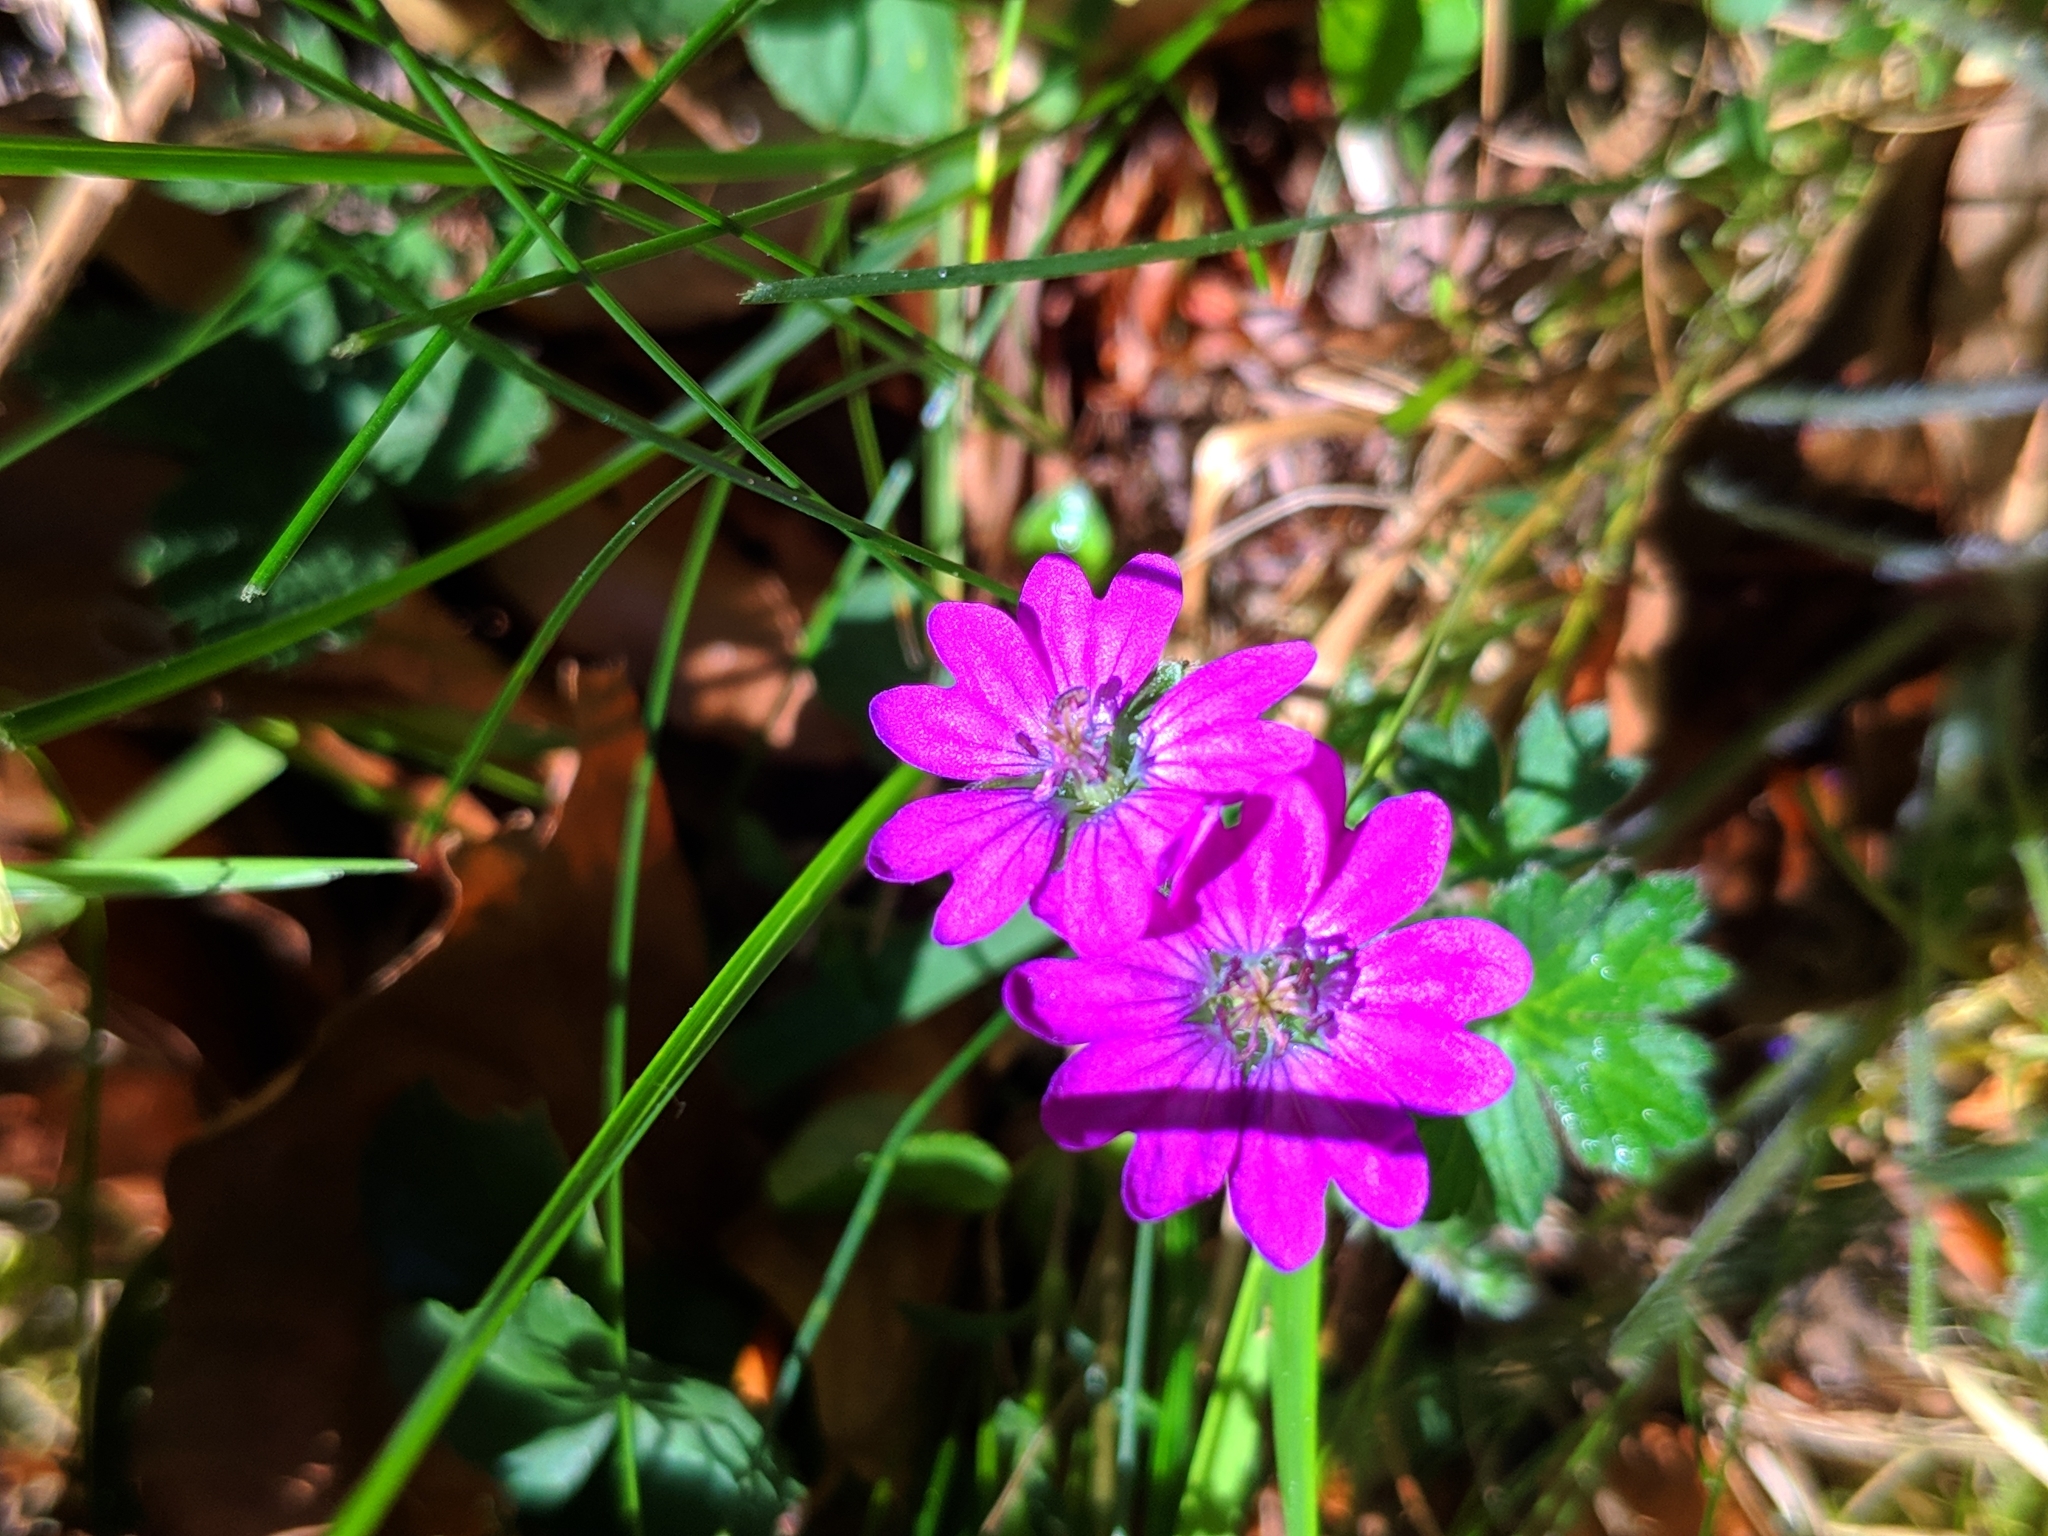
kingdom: Plantae
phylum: Tracheophyta
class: Magnoliopsida
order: Geraniales
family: Geraniaceae
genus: Geranium
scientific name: Geranium pyrenaicum
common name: Hedgerow crane's-bill
